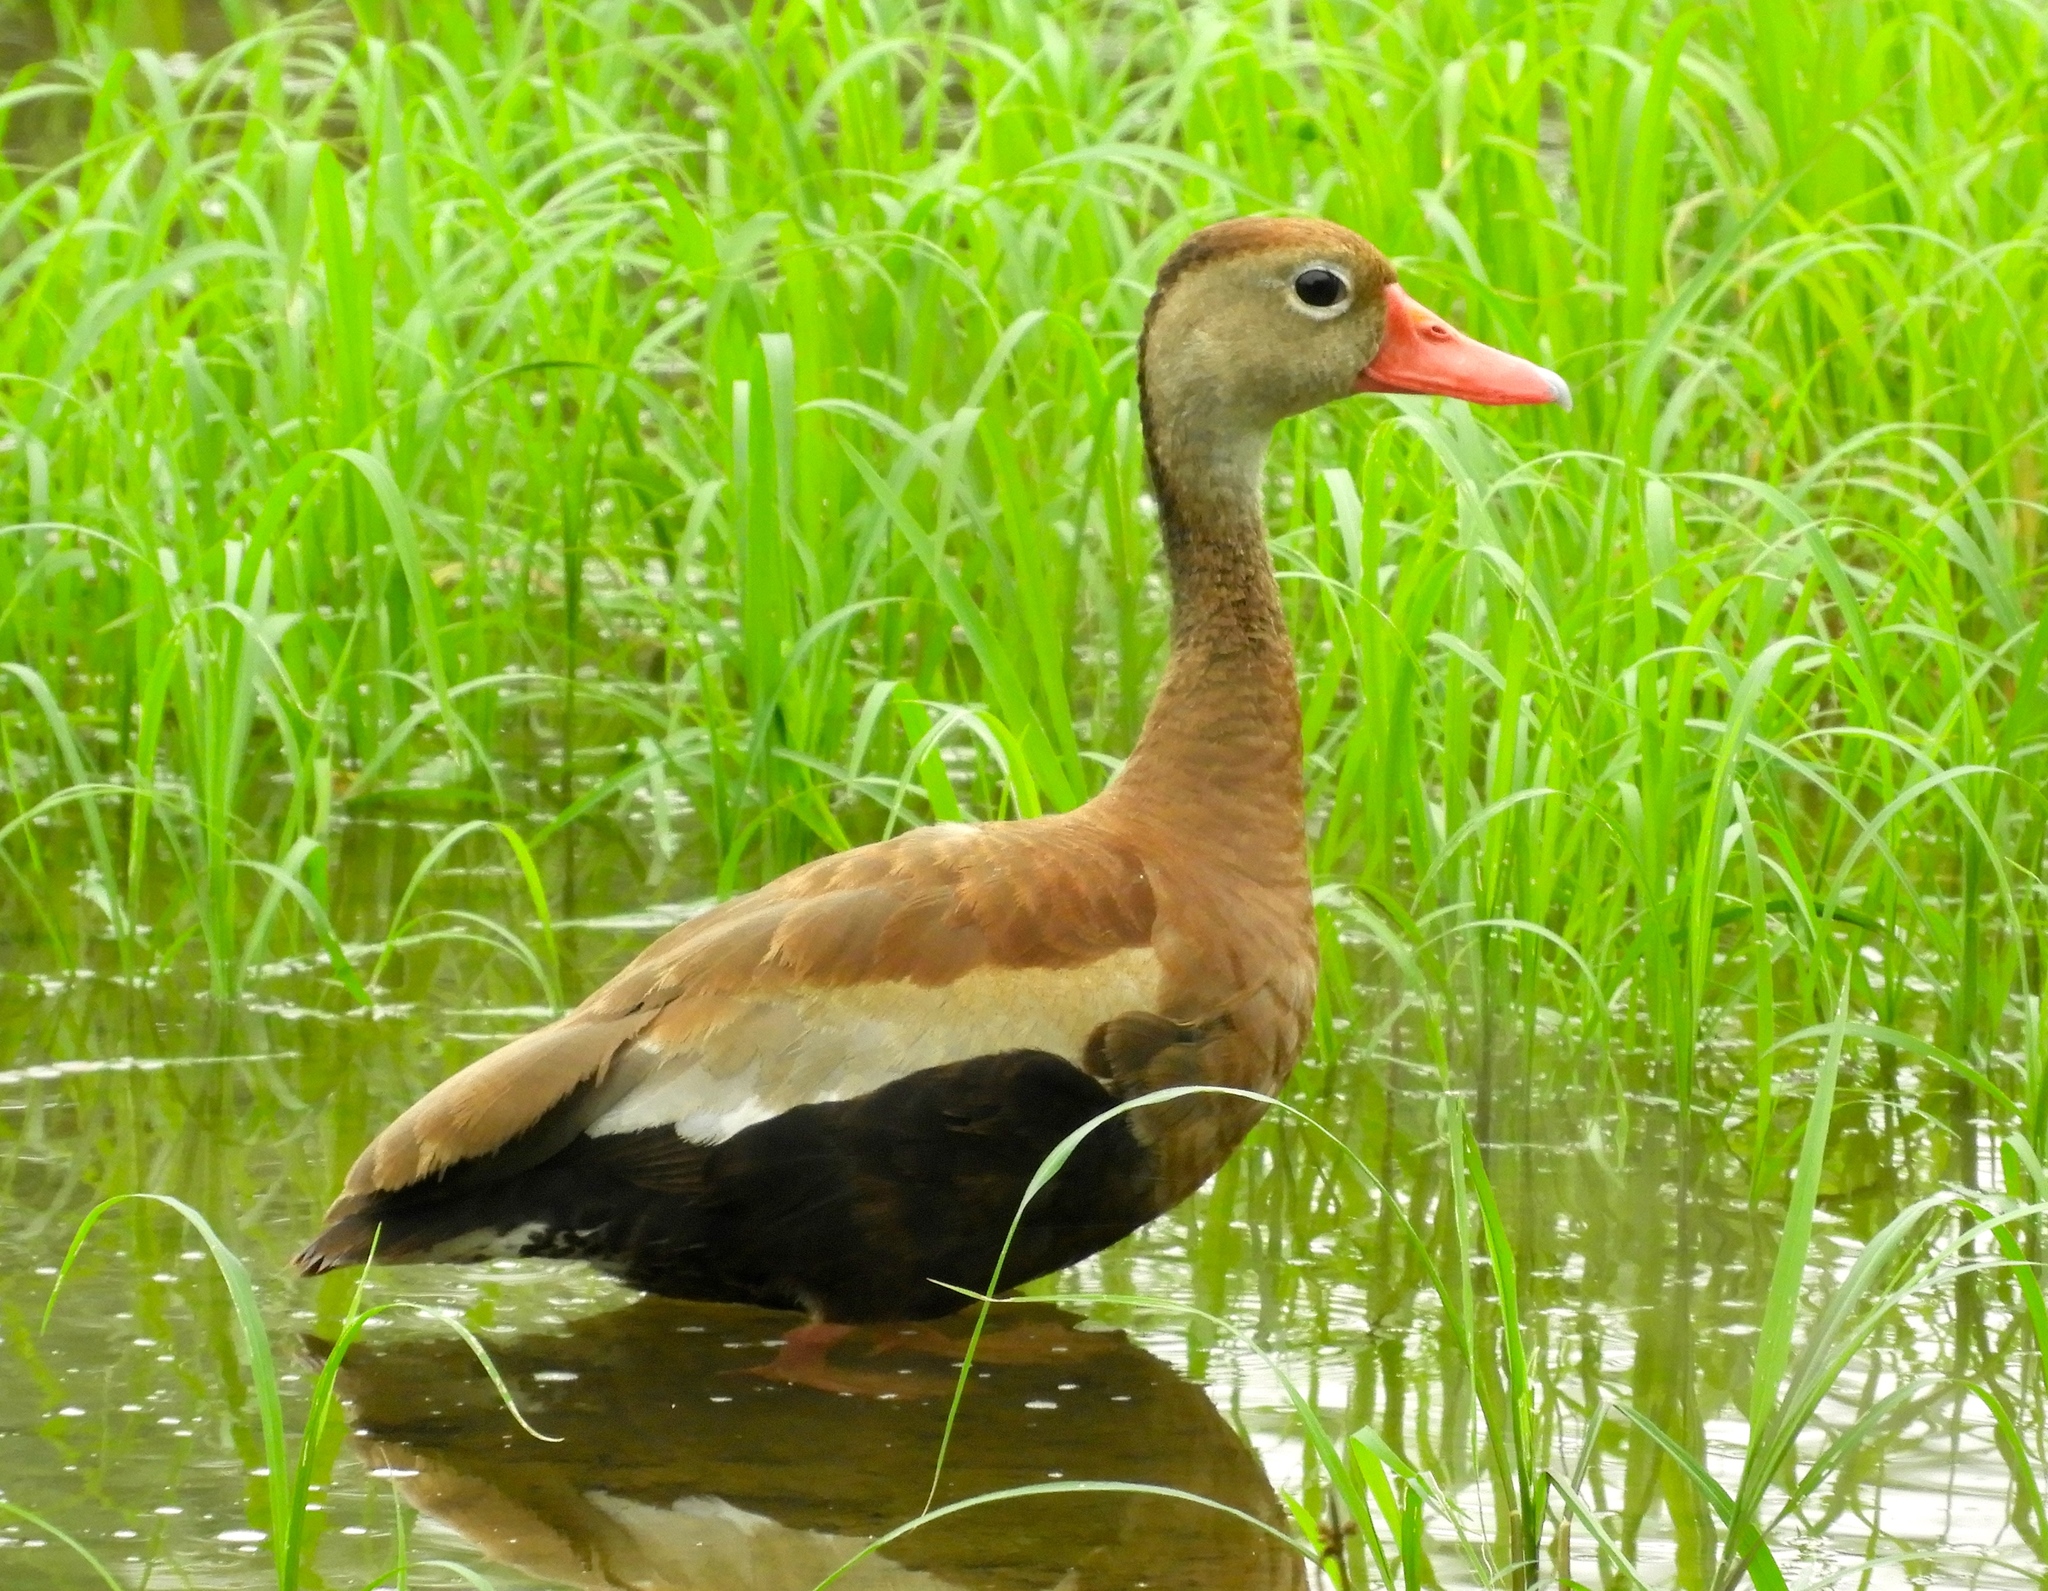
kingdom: Animalia
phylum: Chordata
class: Aves
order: Anseriformes
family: Anatidae
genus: Dendrocygna
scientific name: Dendrocygna autumnalis
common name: Black-bellied whistling duck
